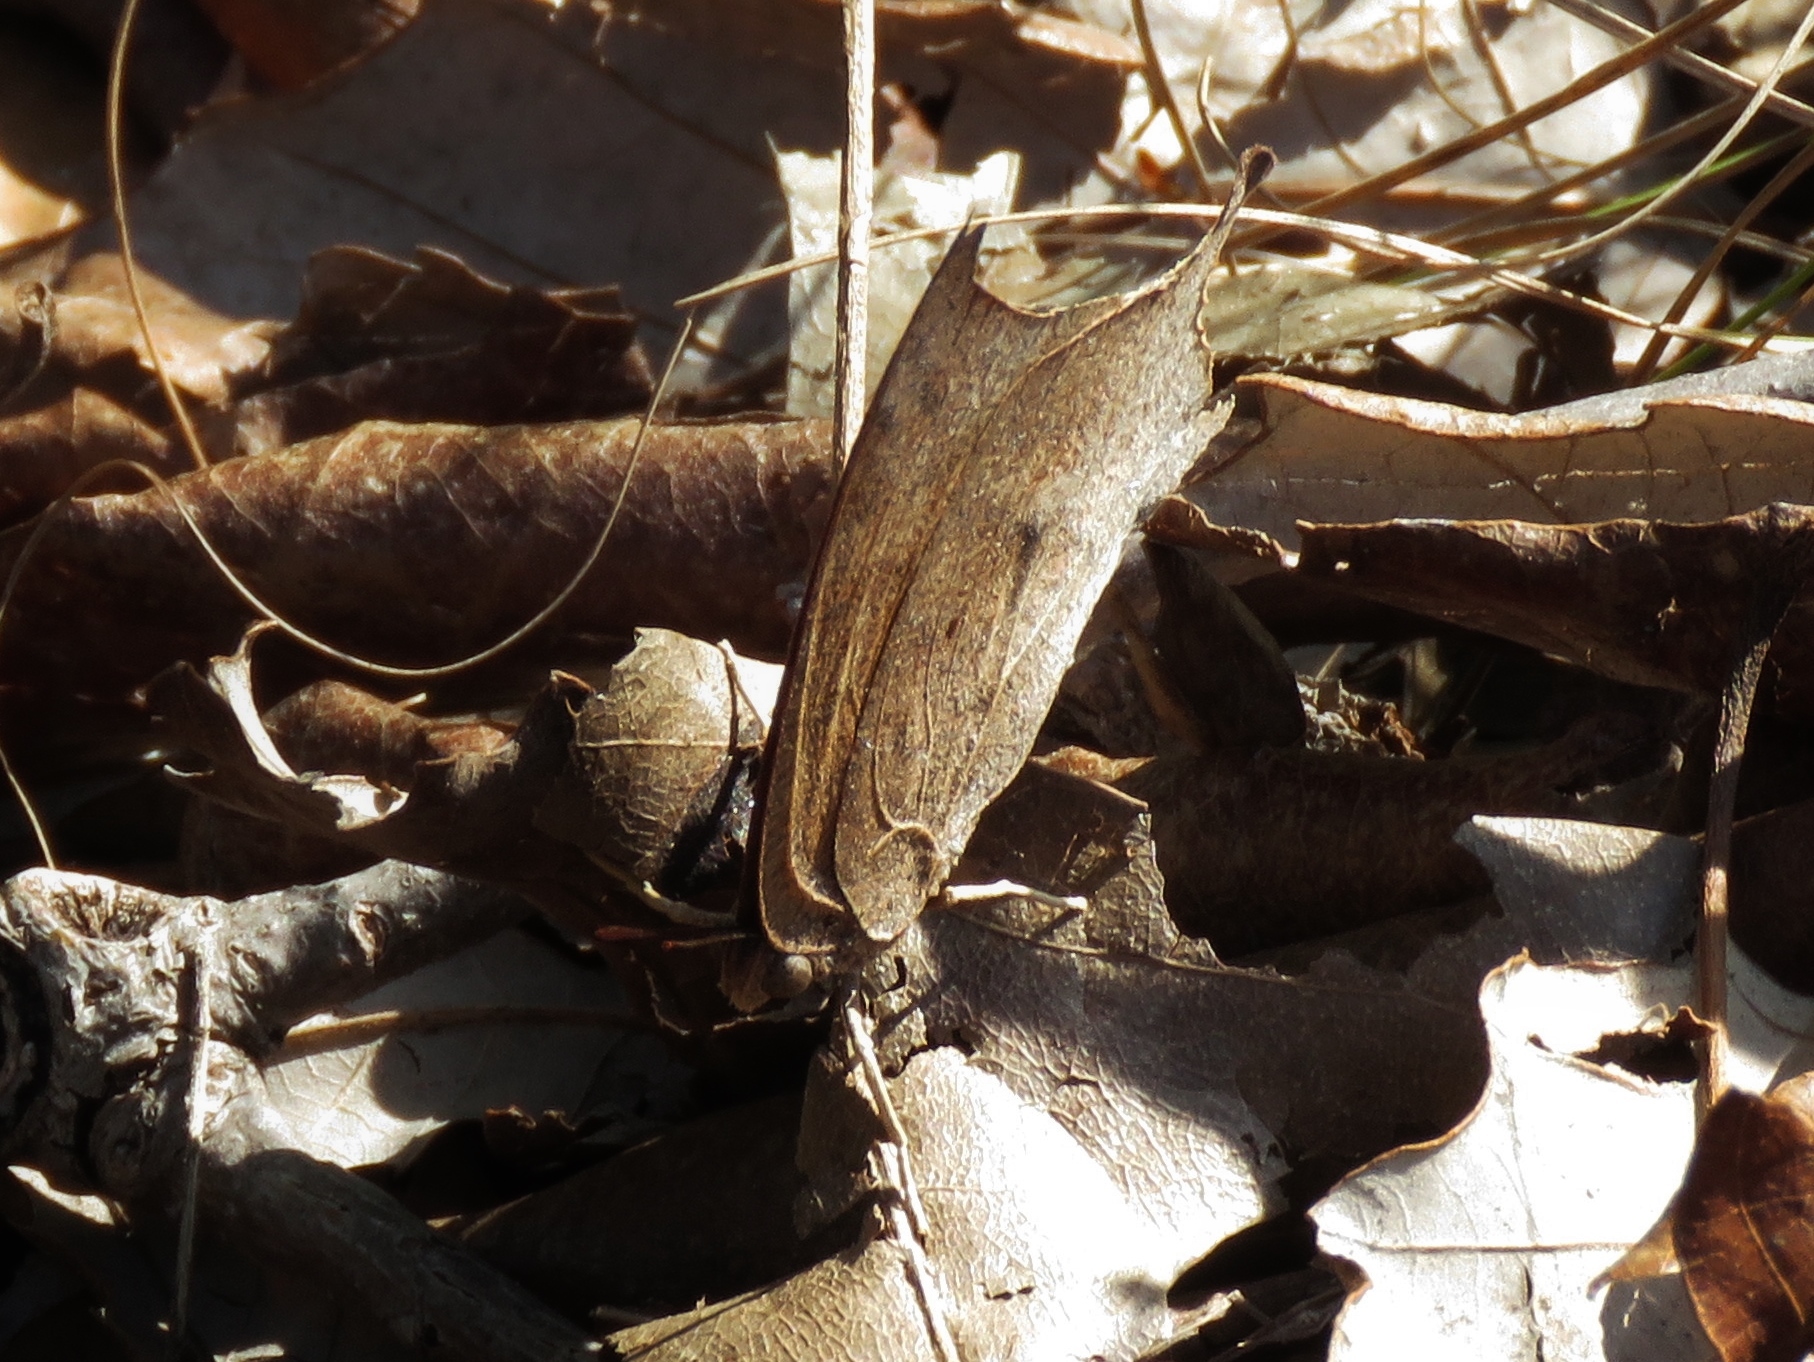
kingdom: Animalia
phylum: Arthropoda
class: Insecta
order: Lepidoptera
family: Nymphalidae
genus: Anaea
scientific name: Anaea andria
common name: Goatweed leafwing
